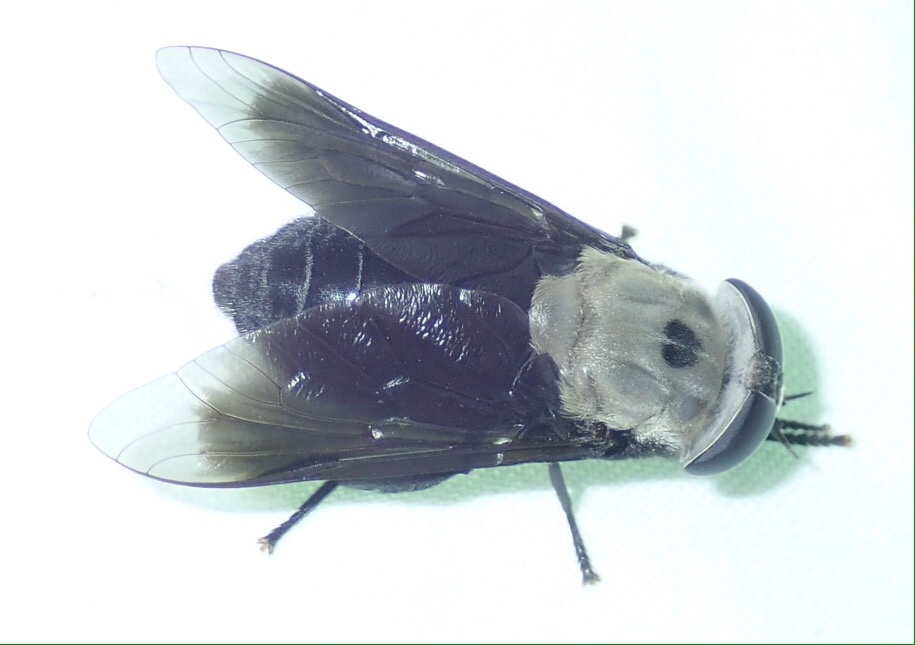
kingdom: Animalia
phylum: Arthropoda
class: Insecta
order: Diptera
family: Tabanidae
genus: Tabanus
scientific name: Tabanus biguttatus
